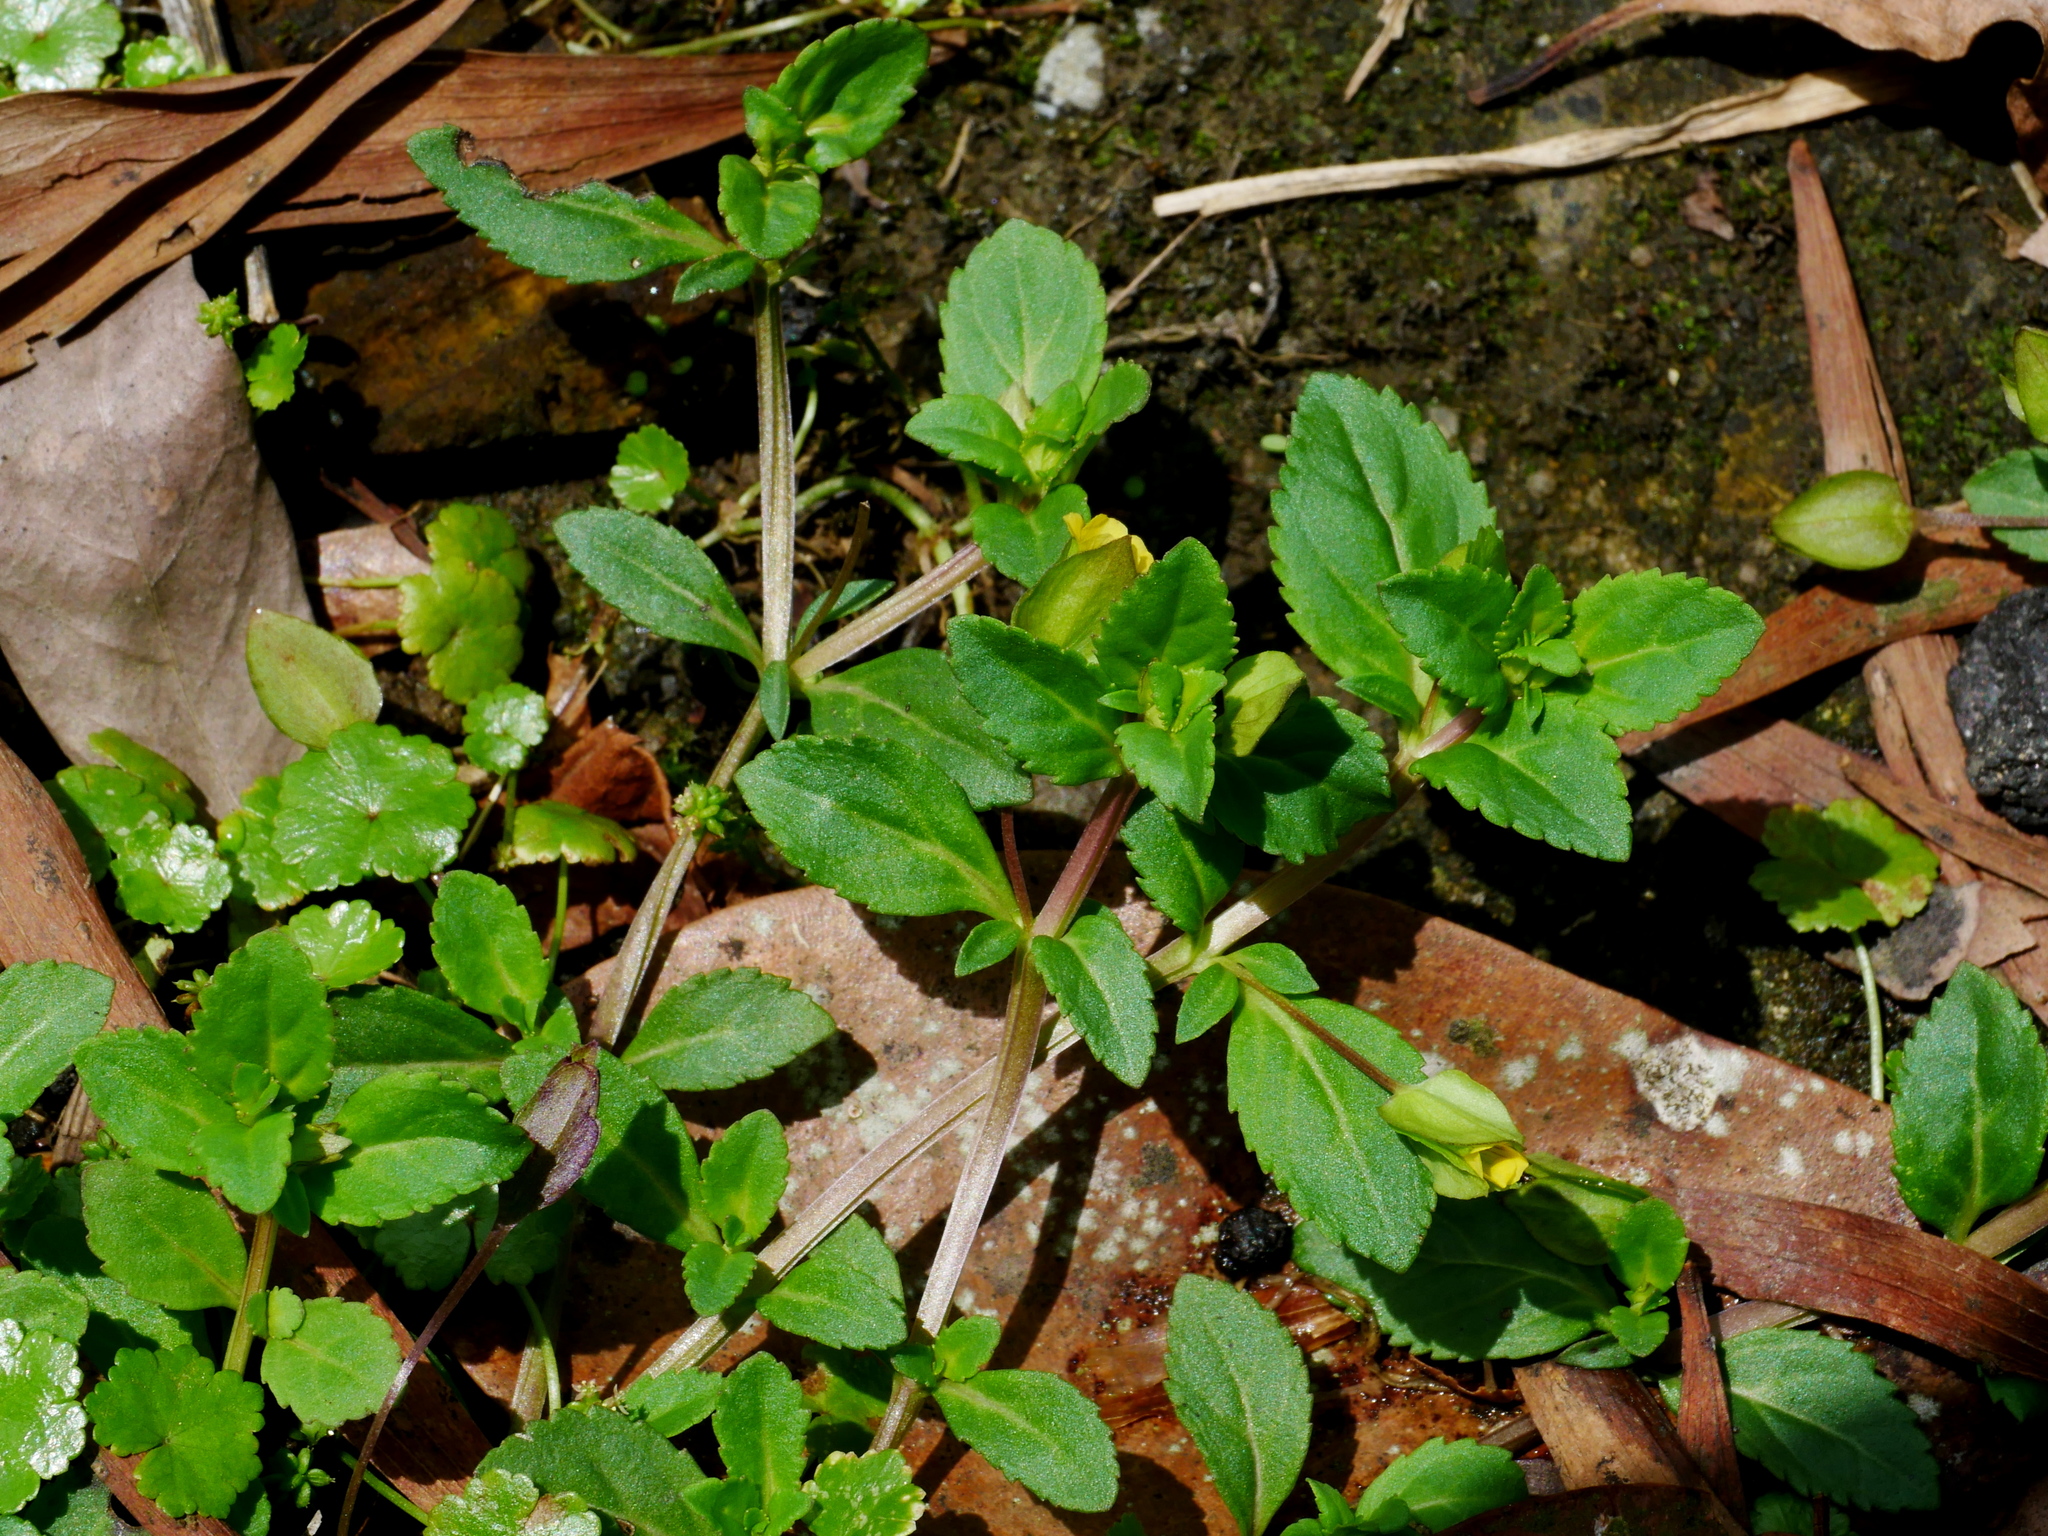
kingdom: Plantae
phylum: Tracheophyta
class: Magnoliopsida
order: Lamiales
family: Plantaginaceae
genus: Mecardonia
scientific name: Mecardonia procumbens
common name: Baby jump-up
